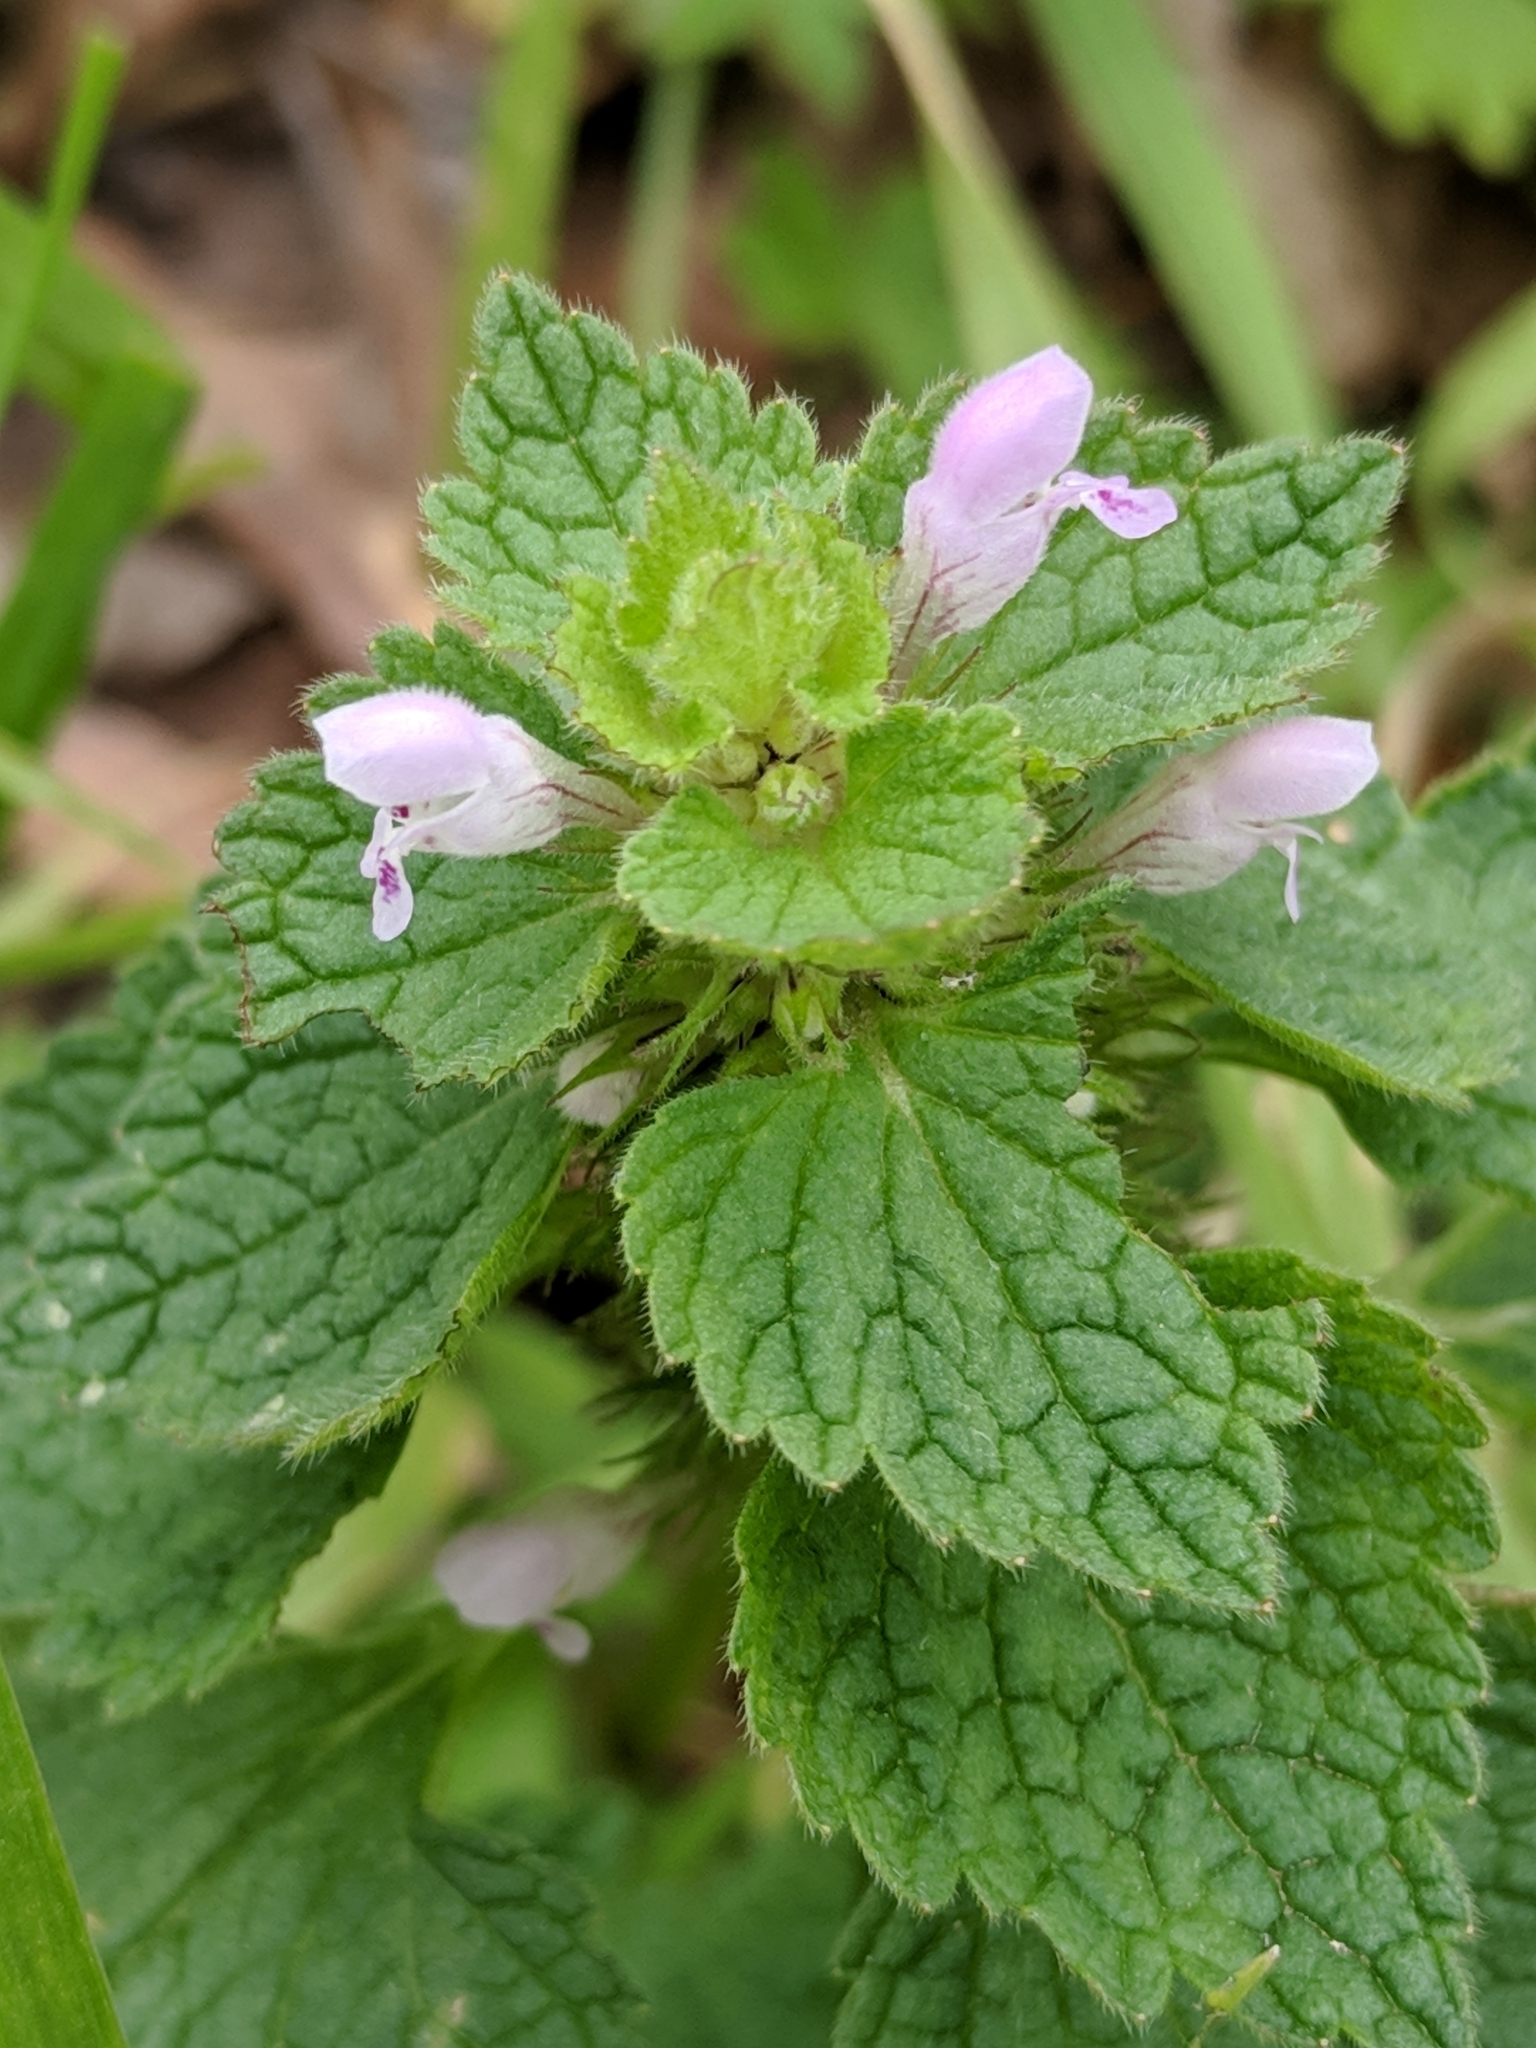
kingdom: Plantae
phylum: Tracheophyta
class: Magnoliopsida
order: Lamiales
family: Lamiaceae
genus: Lamium
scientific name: Lamium purpureum
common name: Red dead-nettle
